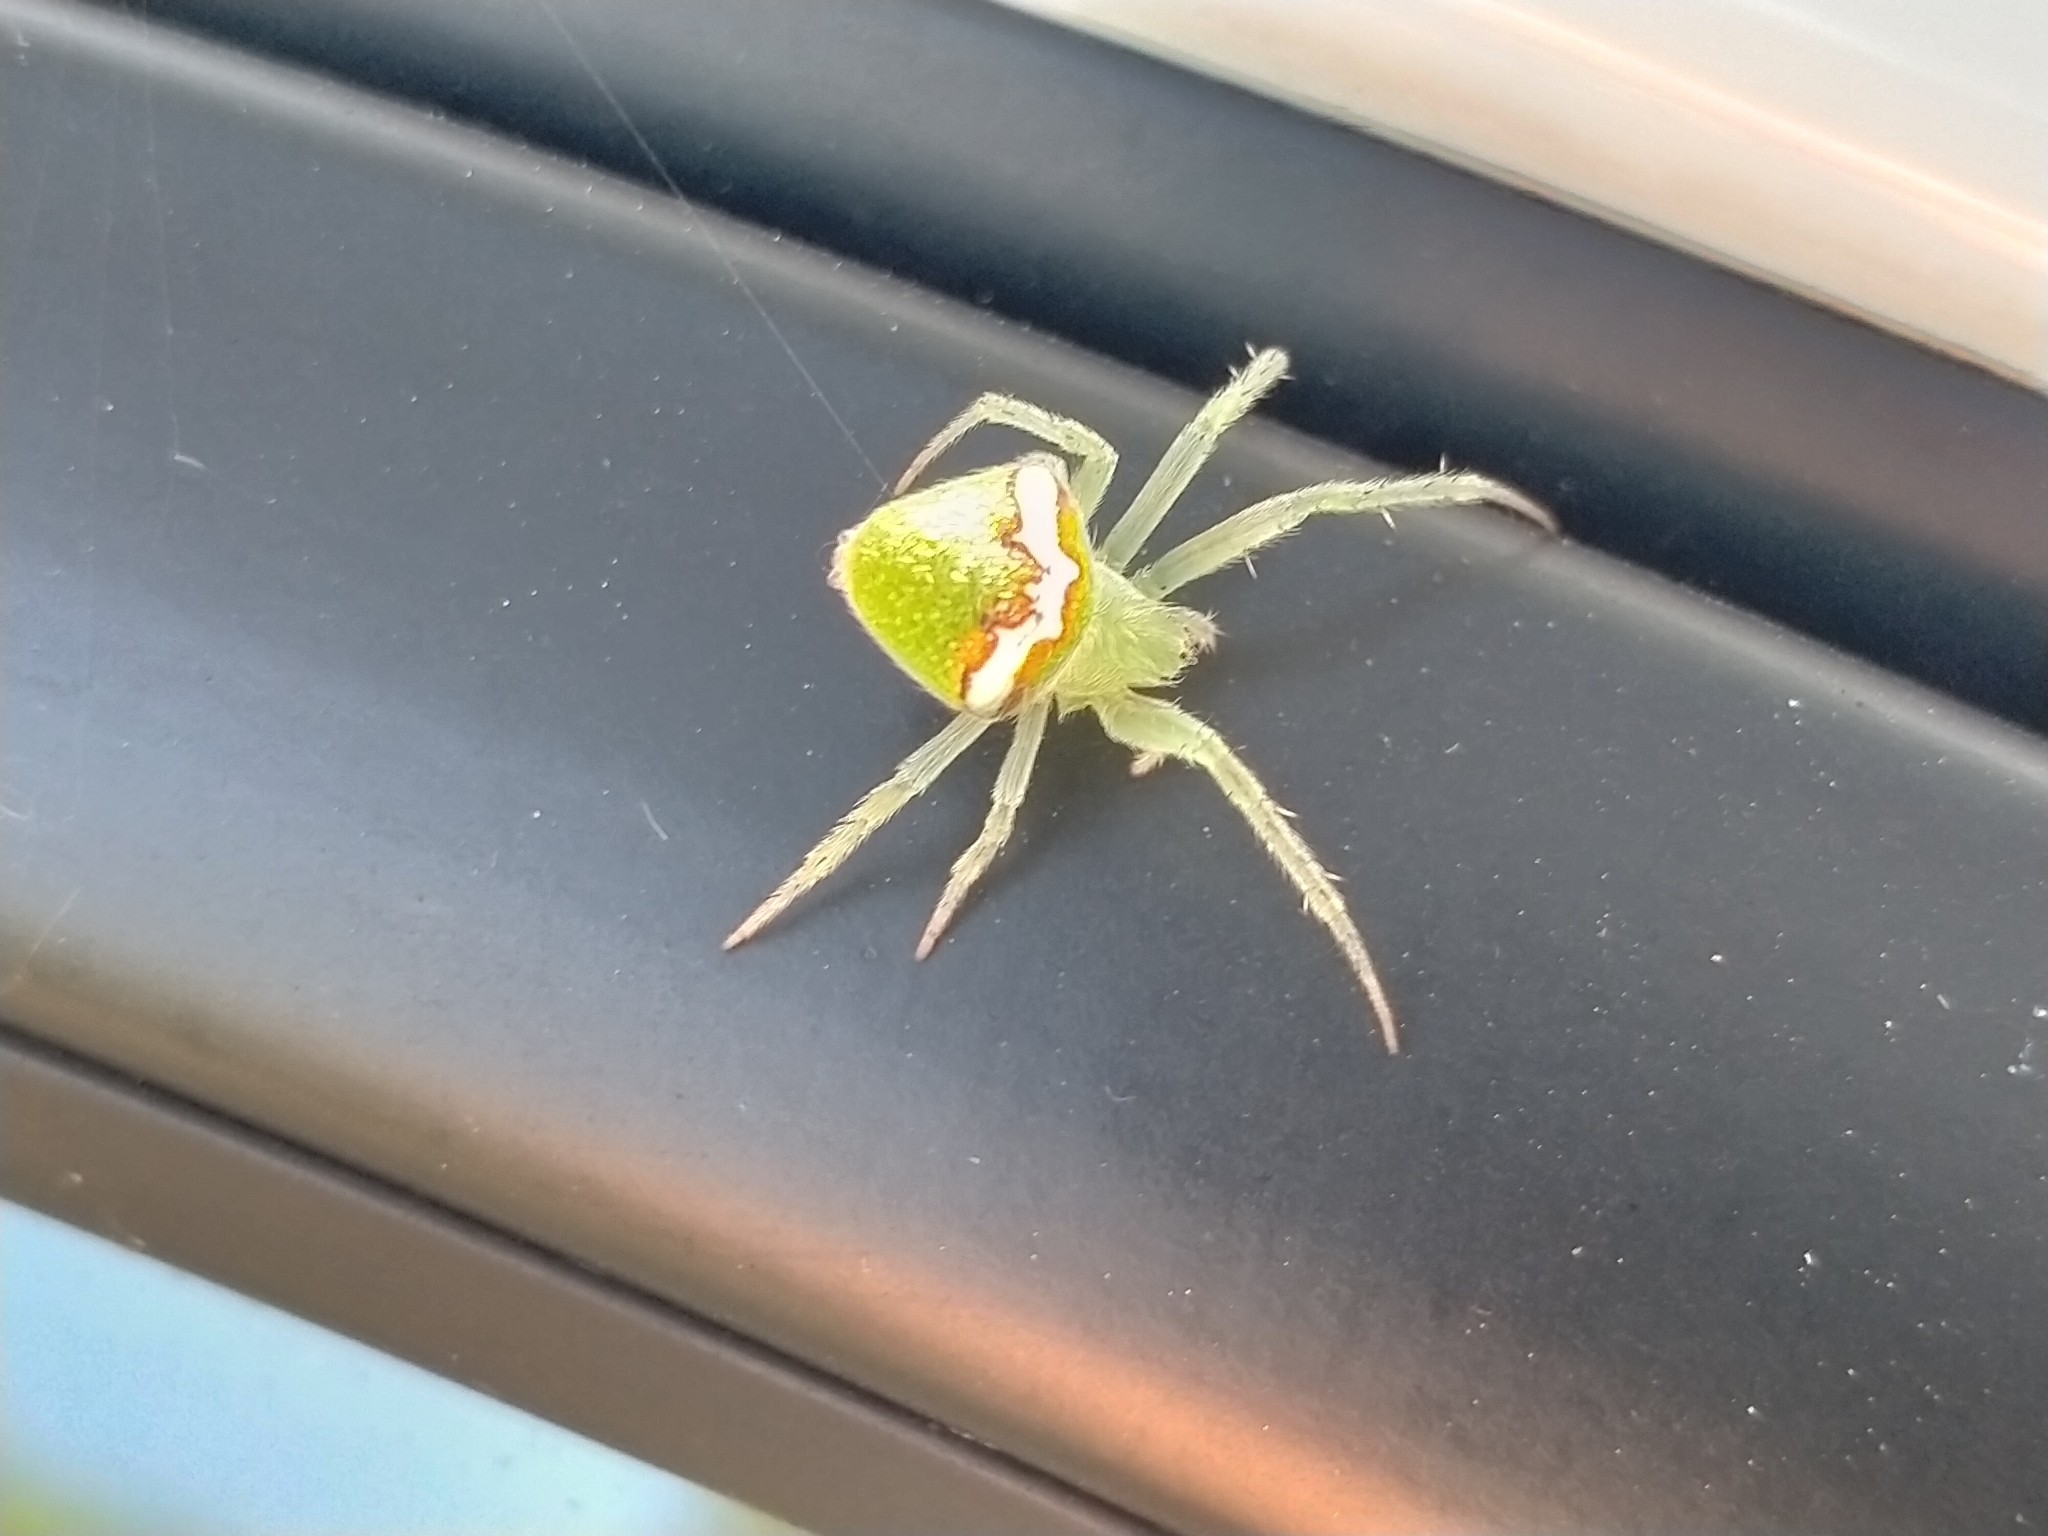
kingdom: Animalia
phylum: Arthropoda
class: Arachnida
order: Araneae
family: Araneidae
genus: Araneus
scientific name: Araneus circulissparsus
